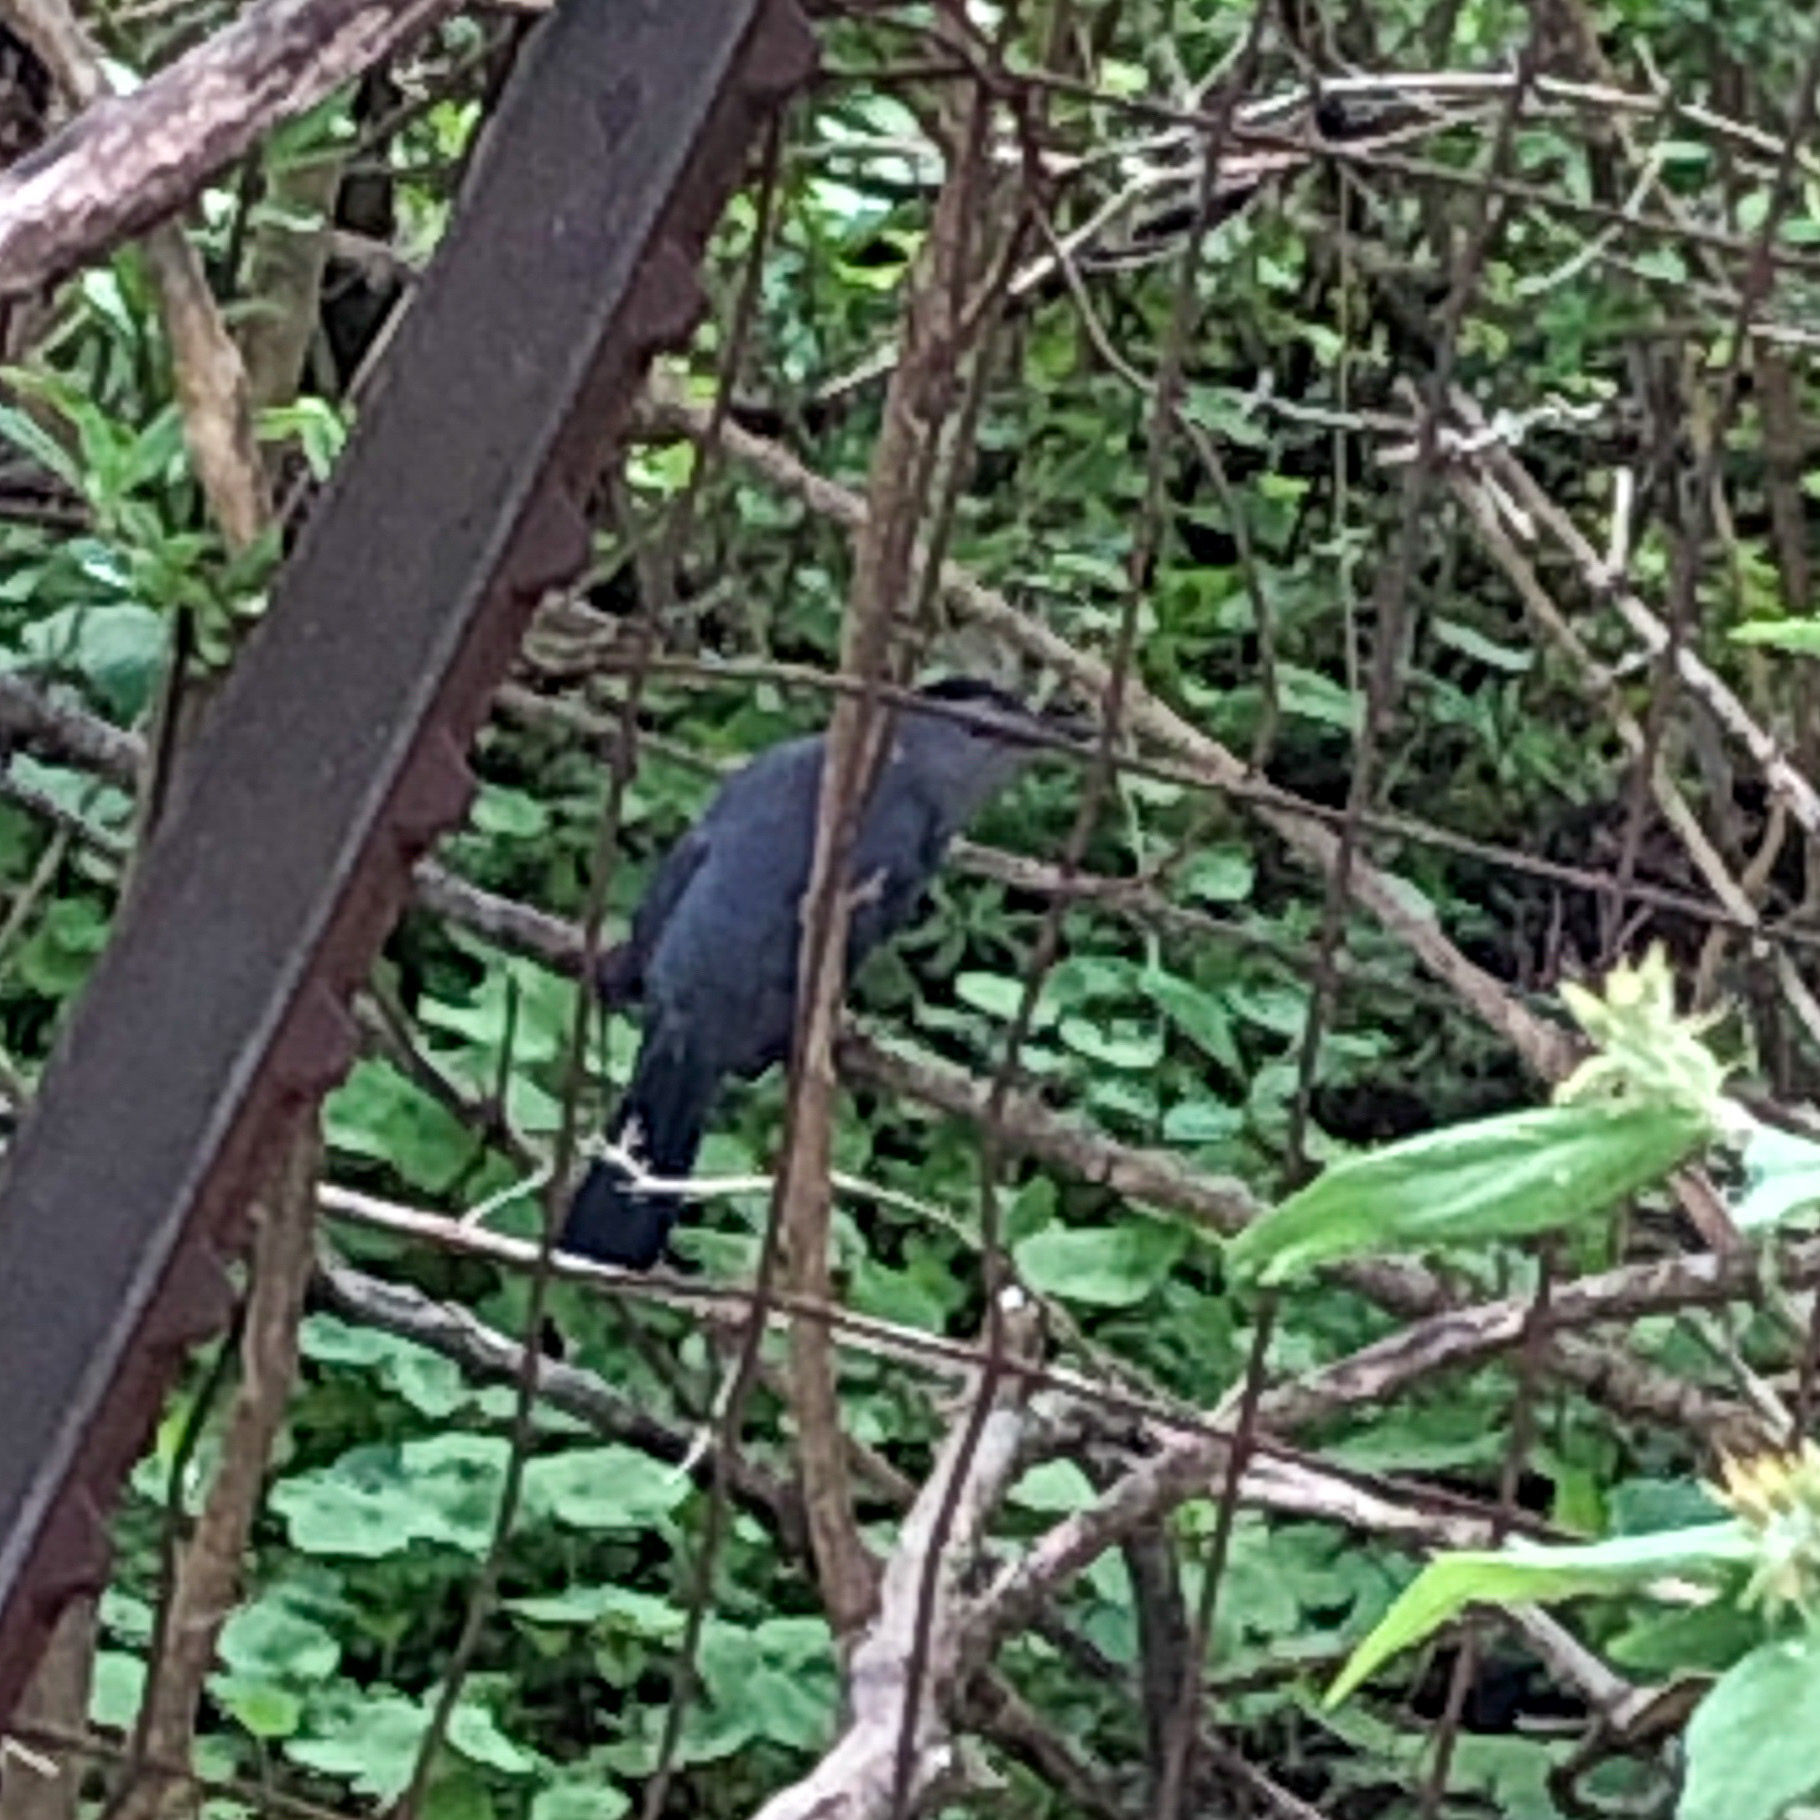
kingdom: Animalia
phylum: Chordata
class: Aves
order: Passeriformes
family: Mimidae
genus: Dumetella
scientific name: Dumetella carolinensis
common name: Gray catbird
